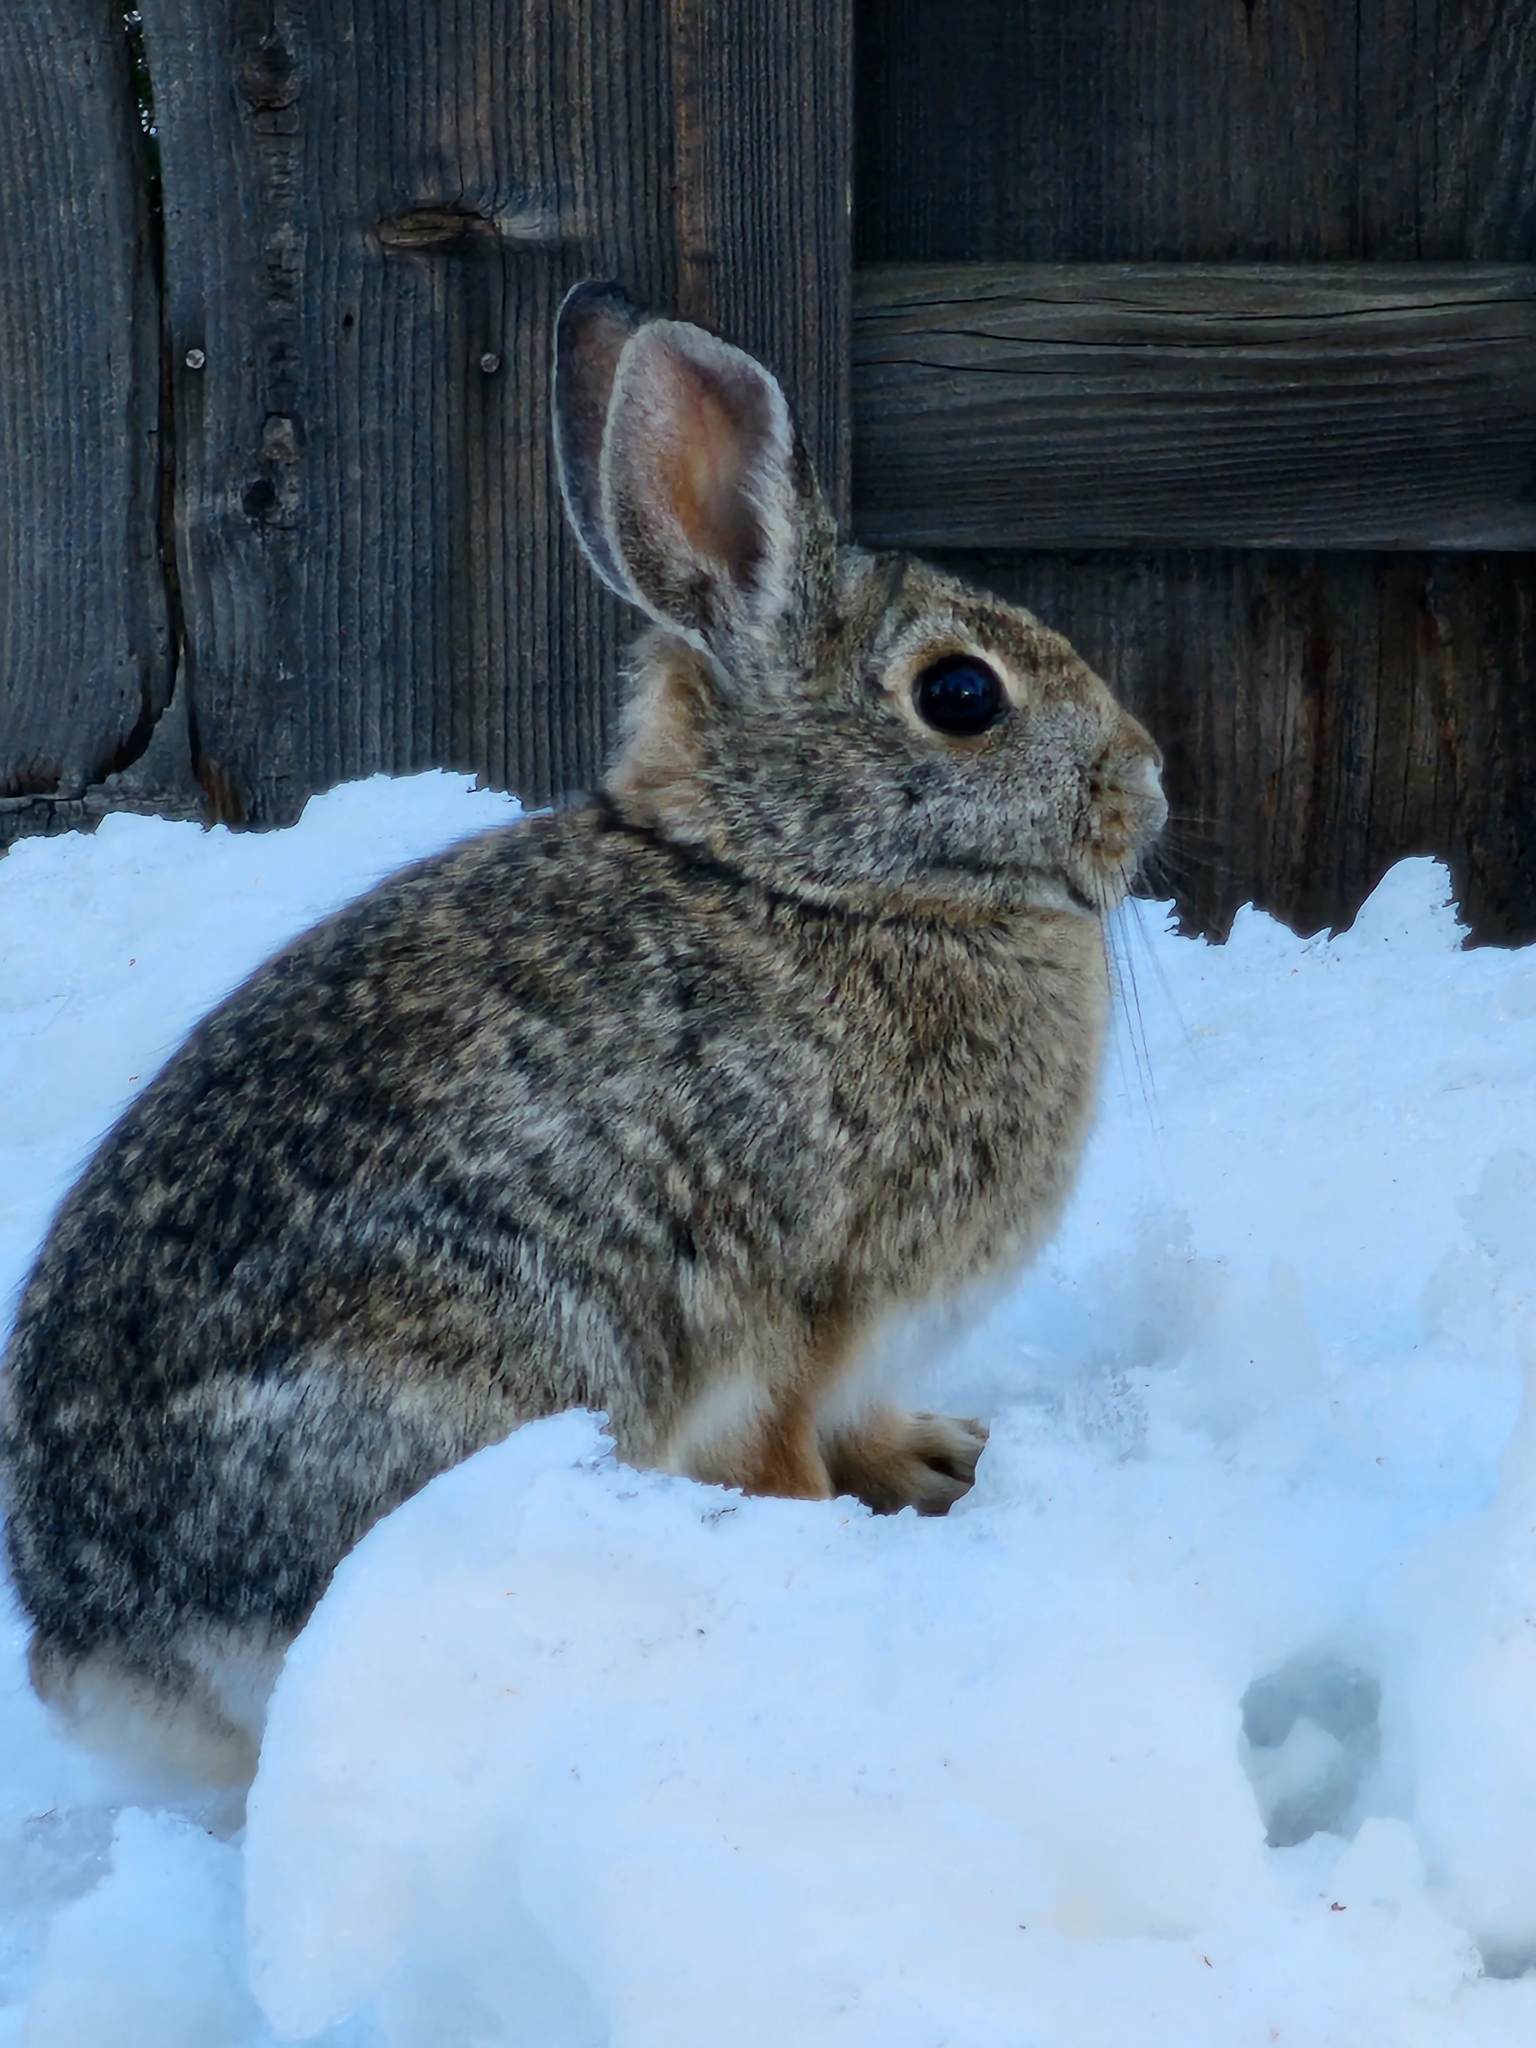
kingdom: Animalia
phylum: Chordata
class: Mammalia
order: Lagomorpha
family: Leporidae
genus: Sylvilagus
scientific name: Sylvilagus nuttallii
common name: Mountain cottontail
